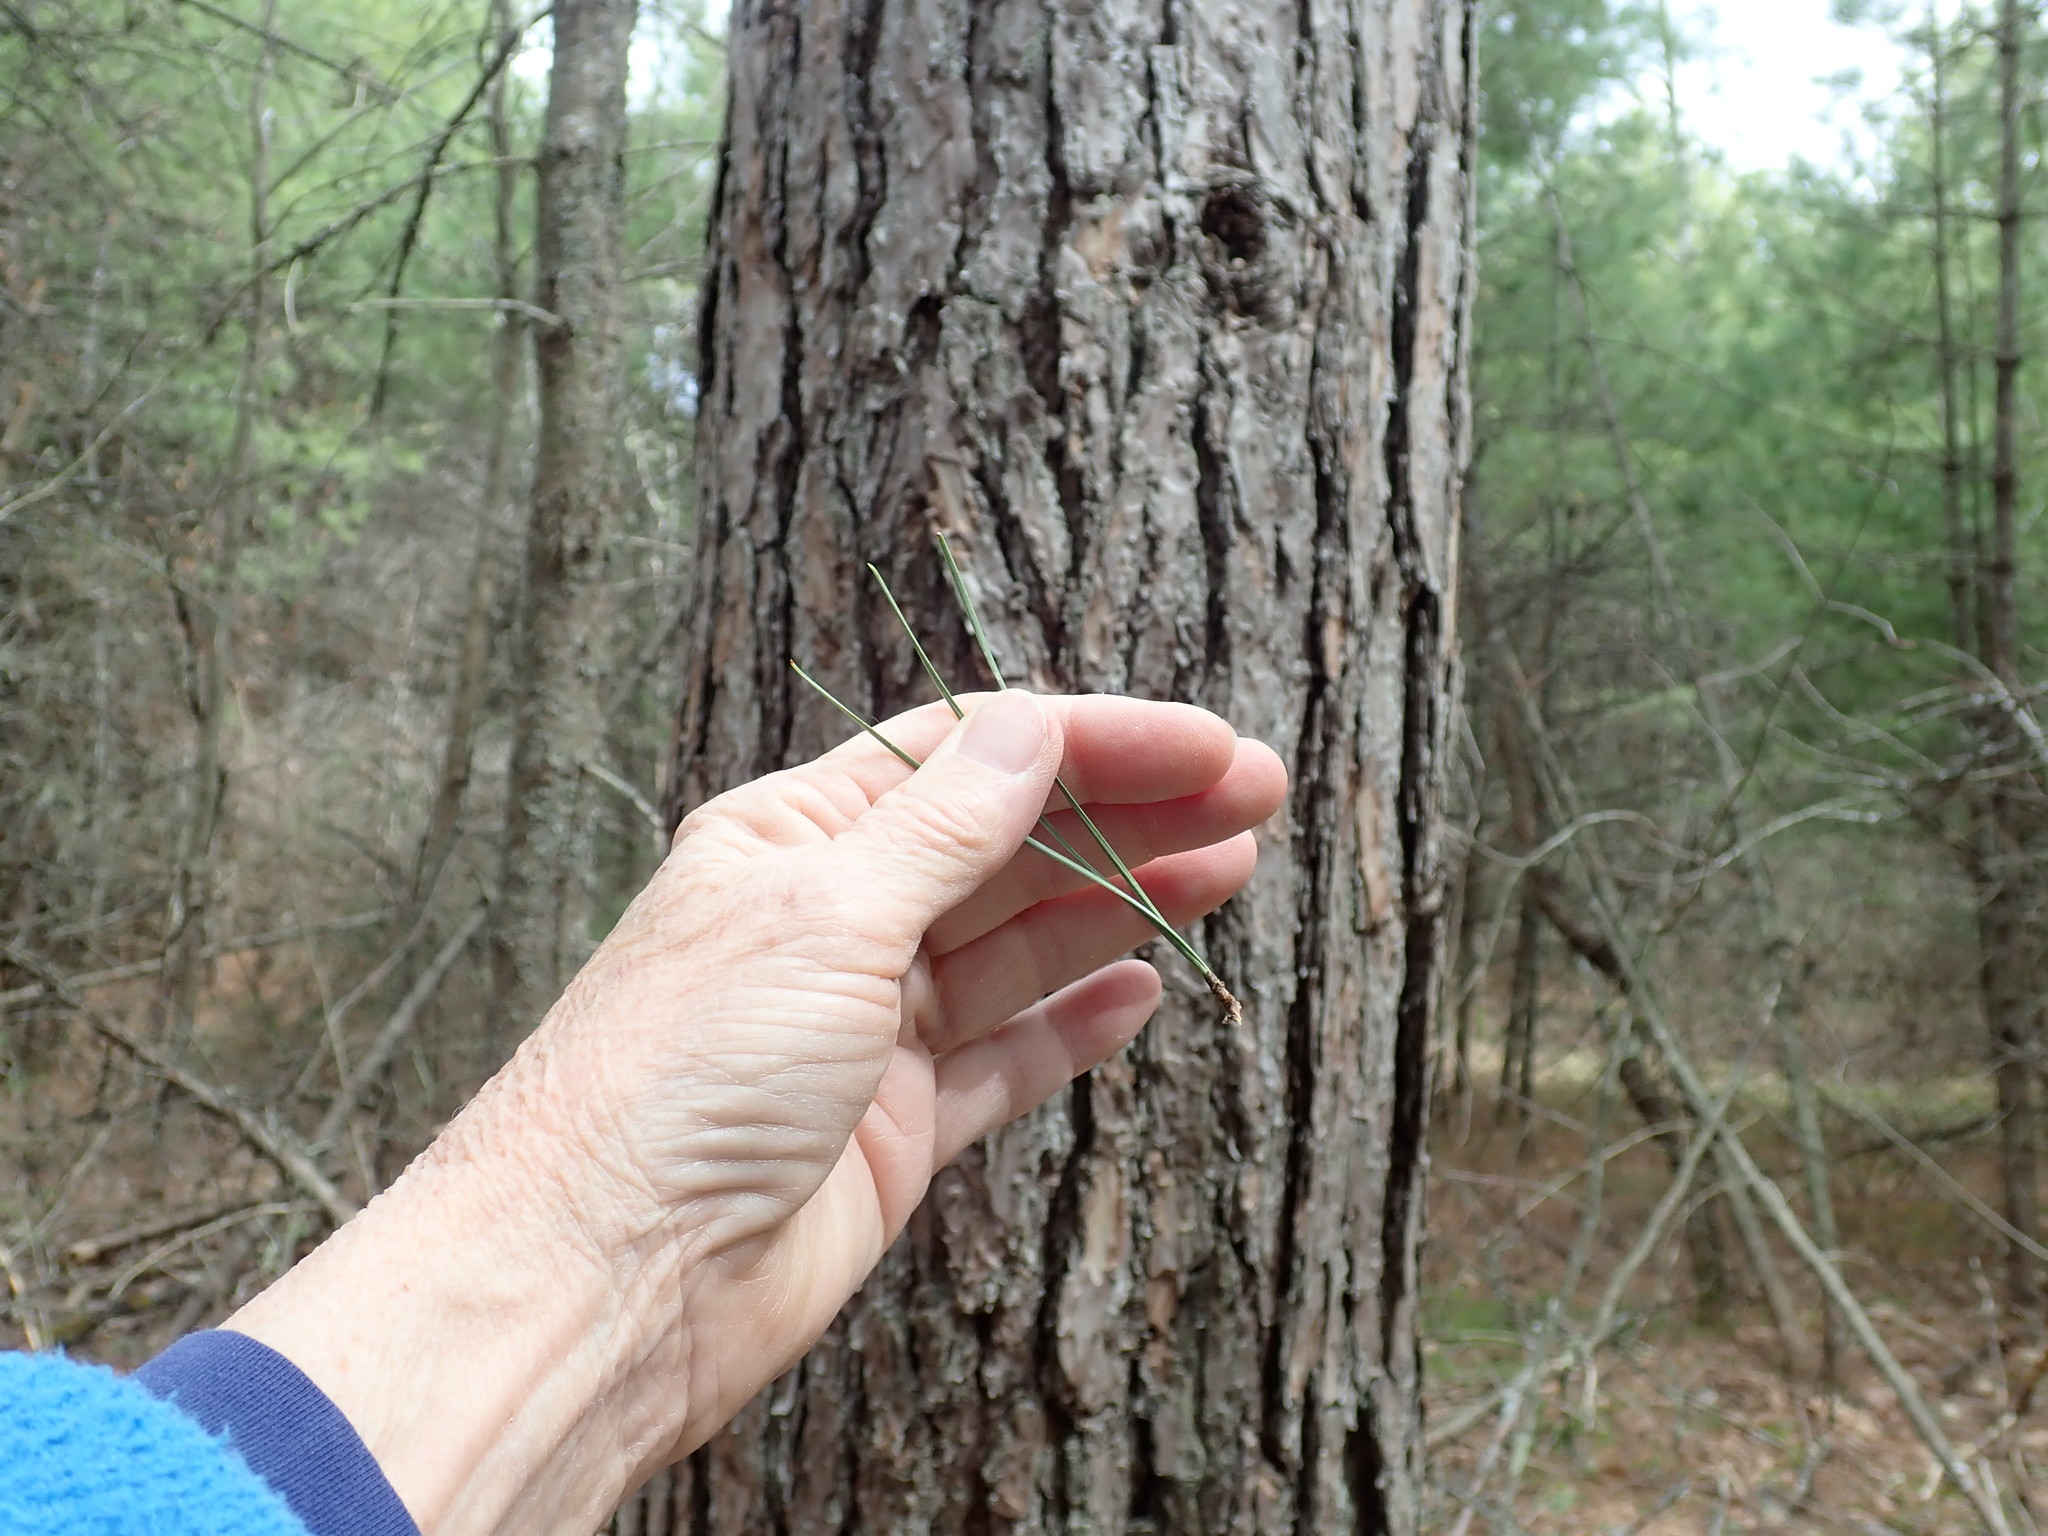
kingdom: Plantae
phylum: Tracheophyta
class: Pinopsida
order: Pinales
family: Pinaceae
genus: Pinus
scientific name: Pinus rigida
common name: Pitch pine
